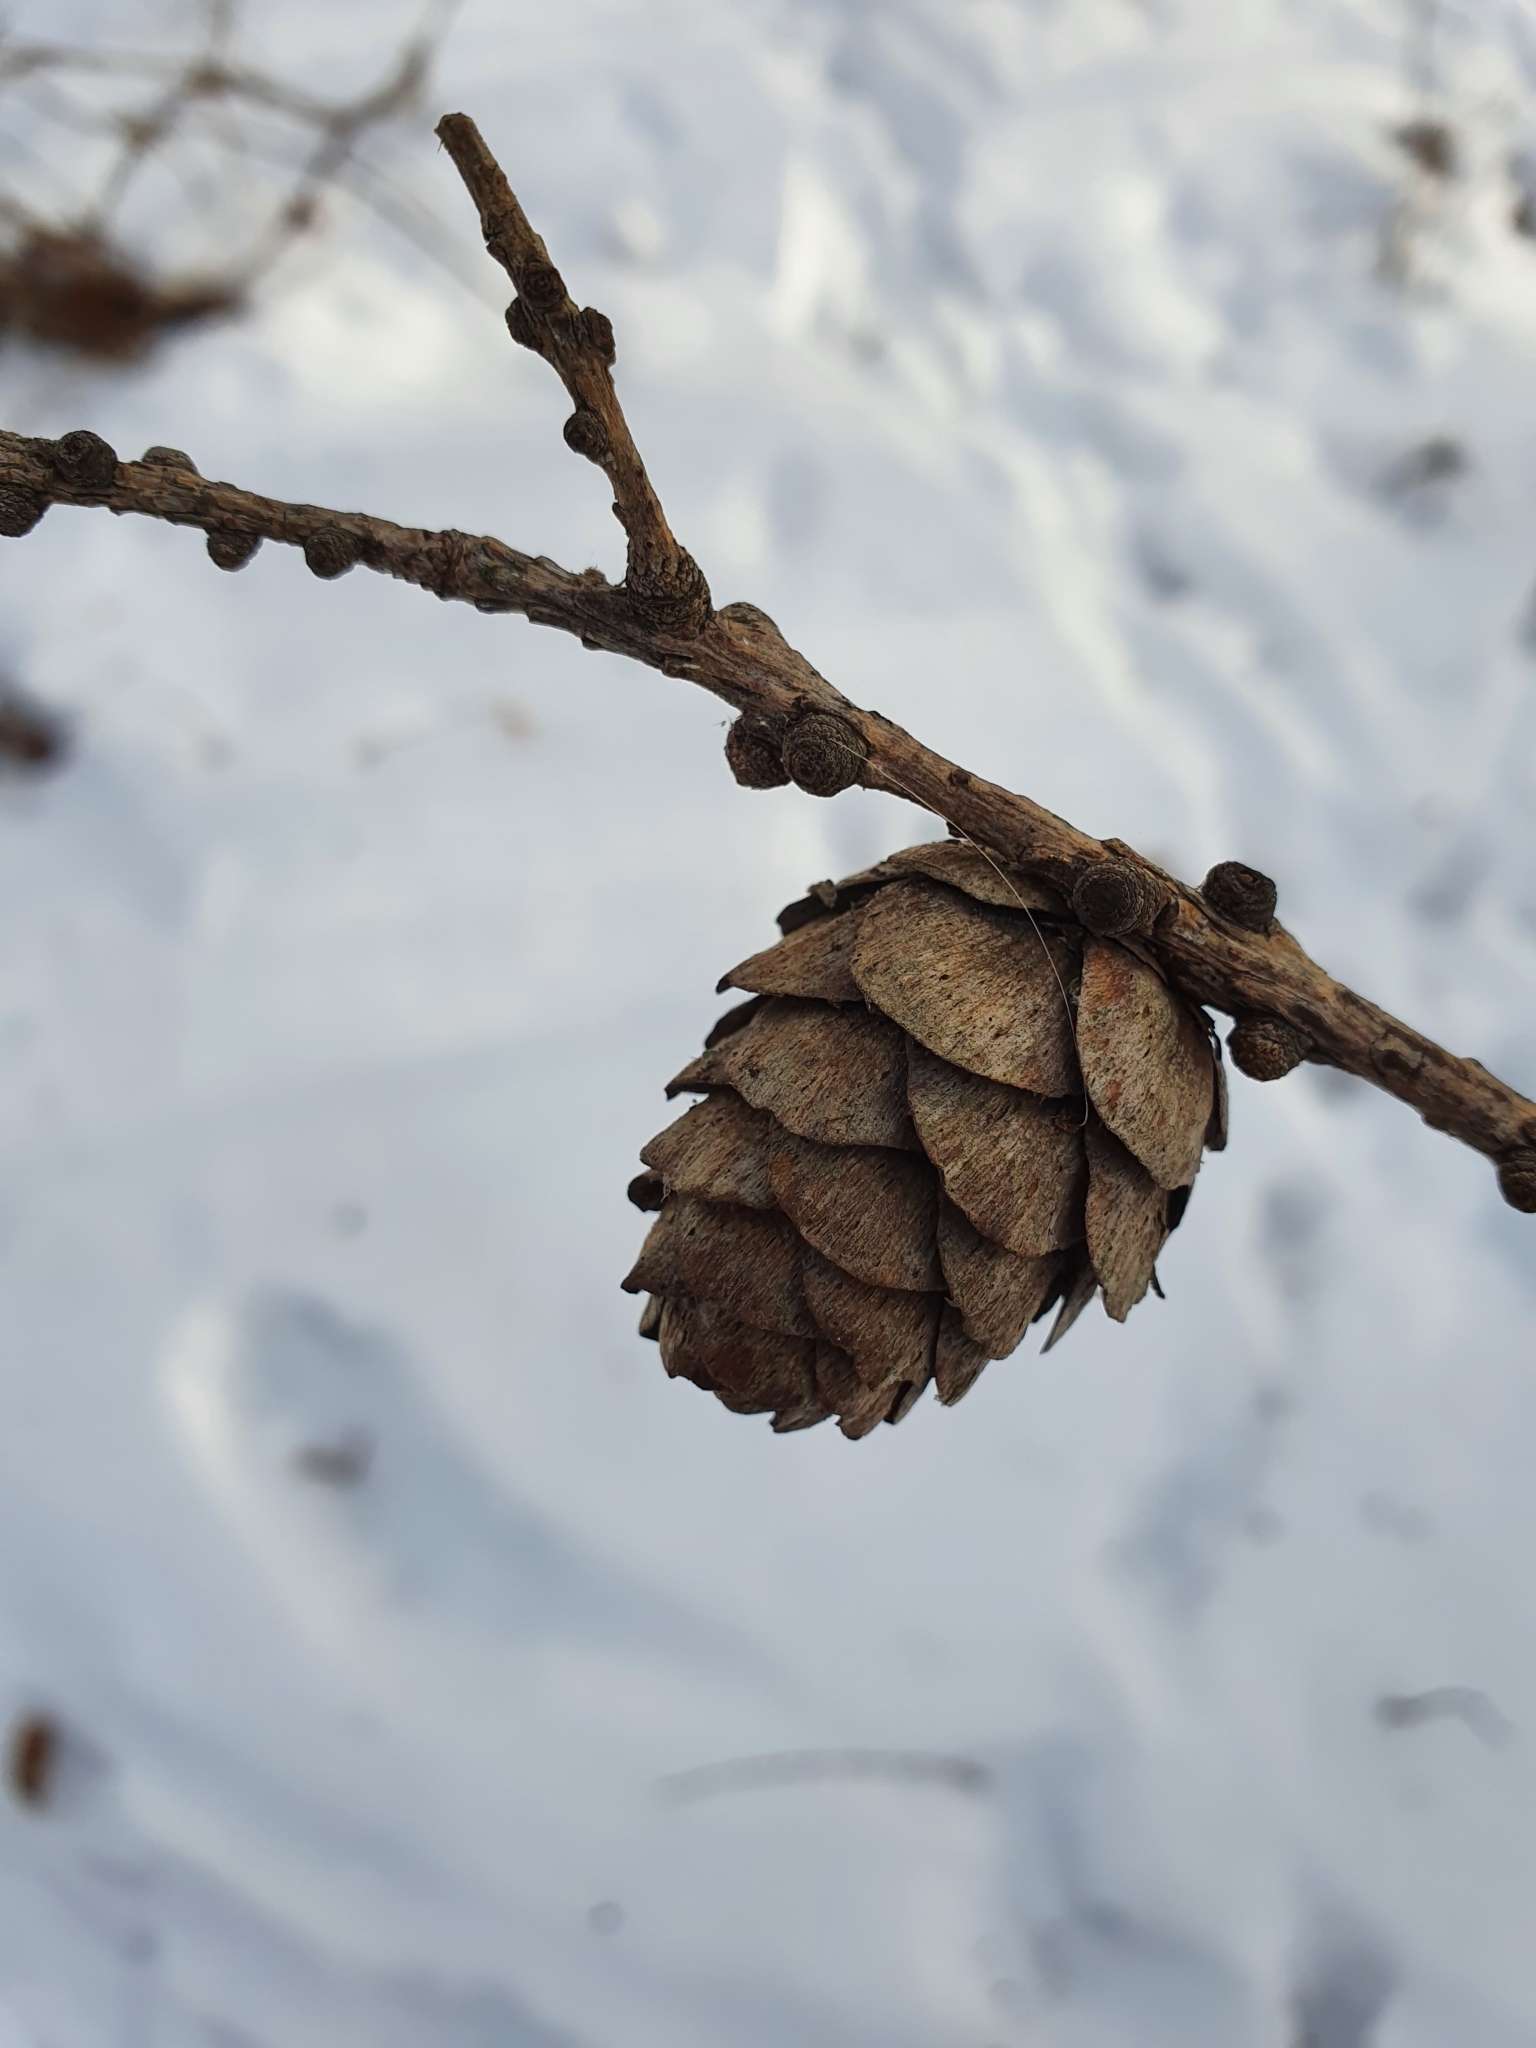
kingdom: Plantae
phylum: Tracheophyta
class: Pinopsida
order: Pinales
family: Pinaceae
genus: Larix
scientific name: Larix decidua
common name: European larch
